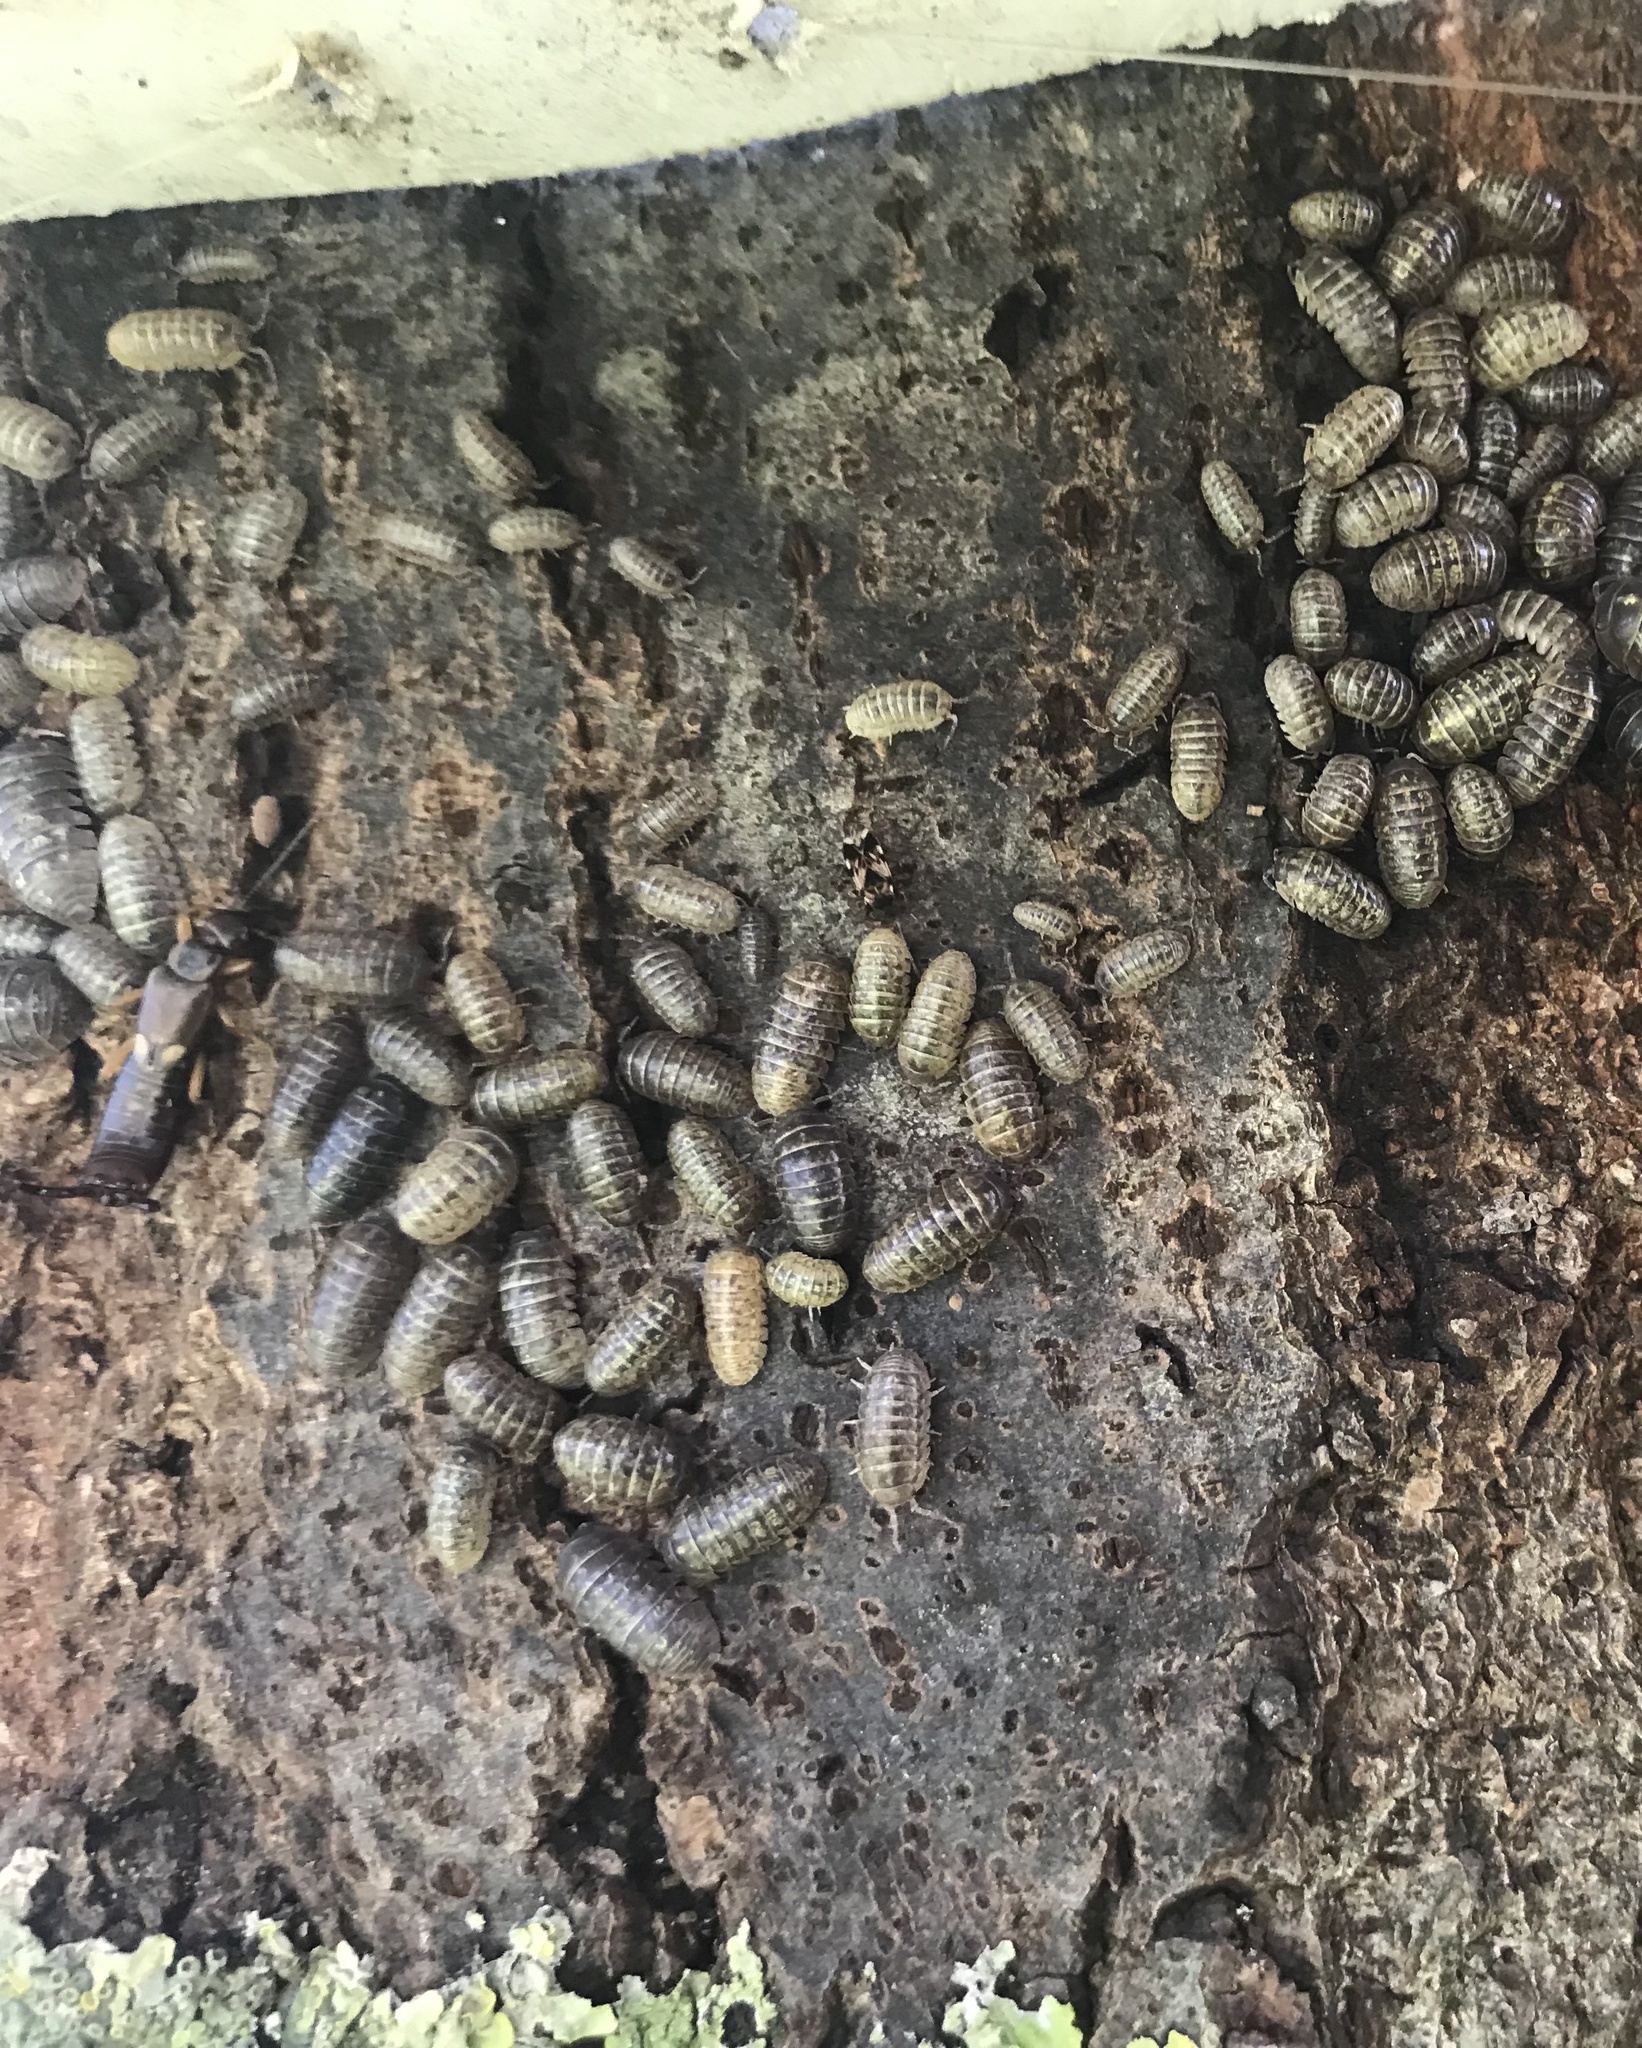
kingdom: Animalia
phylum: Arthropoda
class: Malacostraca
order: Isopoda
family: Armadillidiidae
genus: Armadillidium
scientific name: Armadillidium vulgare
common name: Common pill woodlouse
